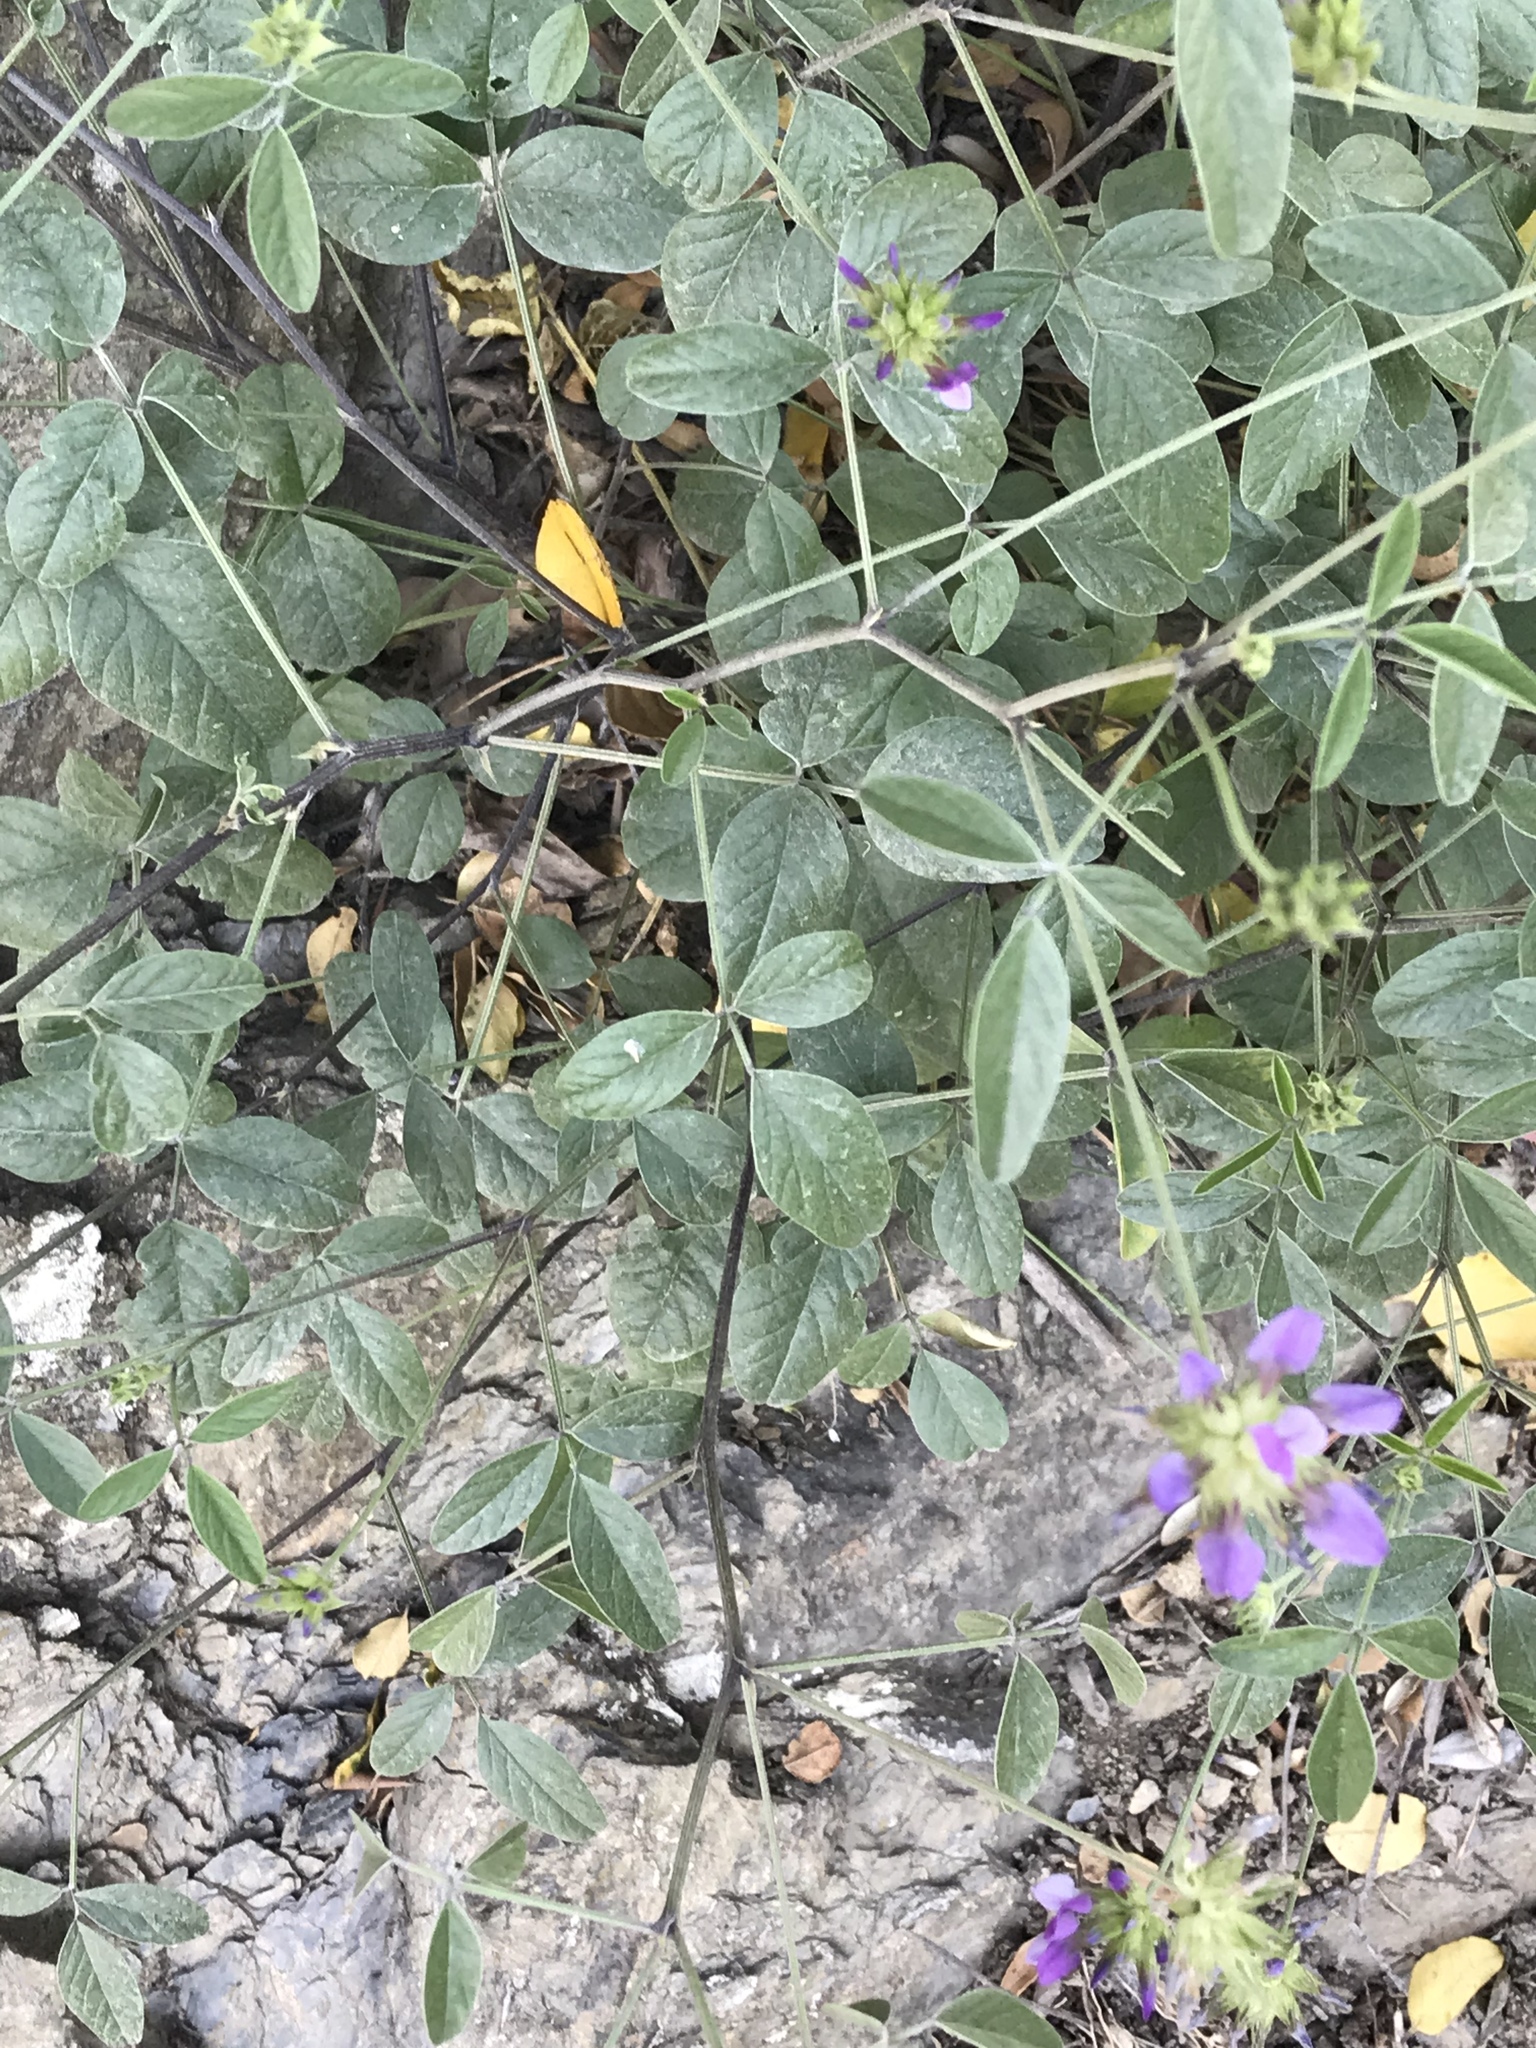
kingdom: Plantae
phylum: Tracheophyta
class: Magnoliopsida
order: Fabales
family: Fabaceae
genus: Bituminaria
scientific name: Bituminaria bituminosa
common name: Arabian pea
